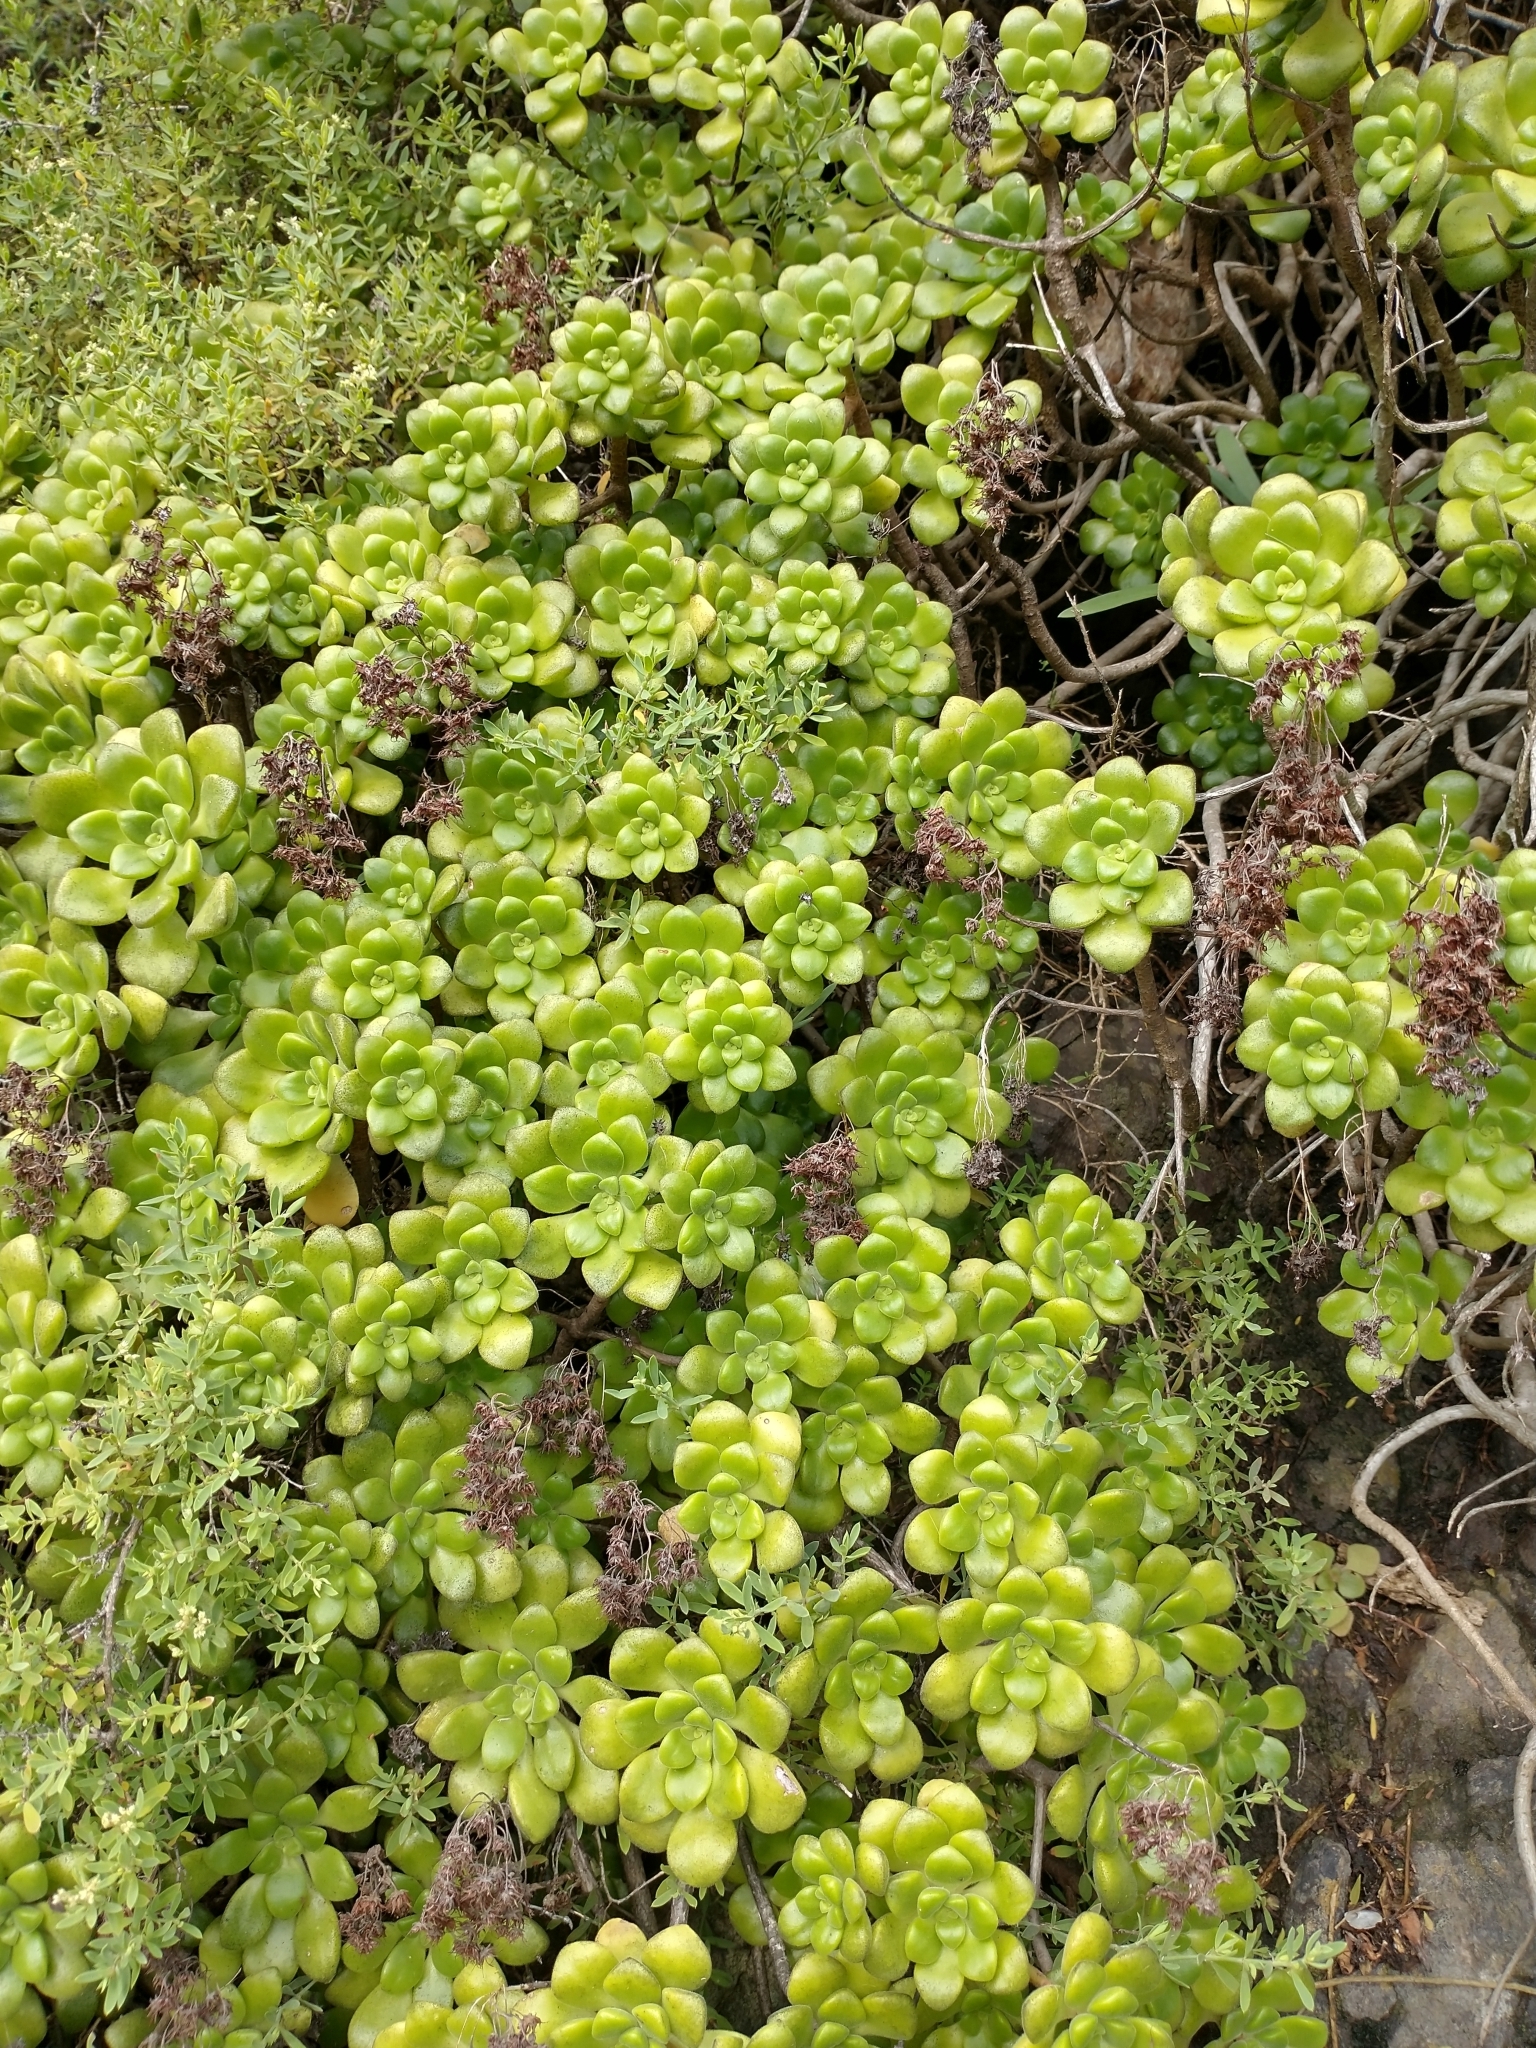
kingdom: Plantae
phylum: Tracheophyta
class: Magnoliopsida
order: Saxifragales
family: Crassulaceae
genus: Aeonium
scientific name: Aeonium lindleyi
